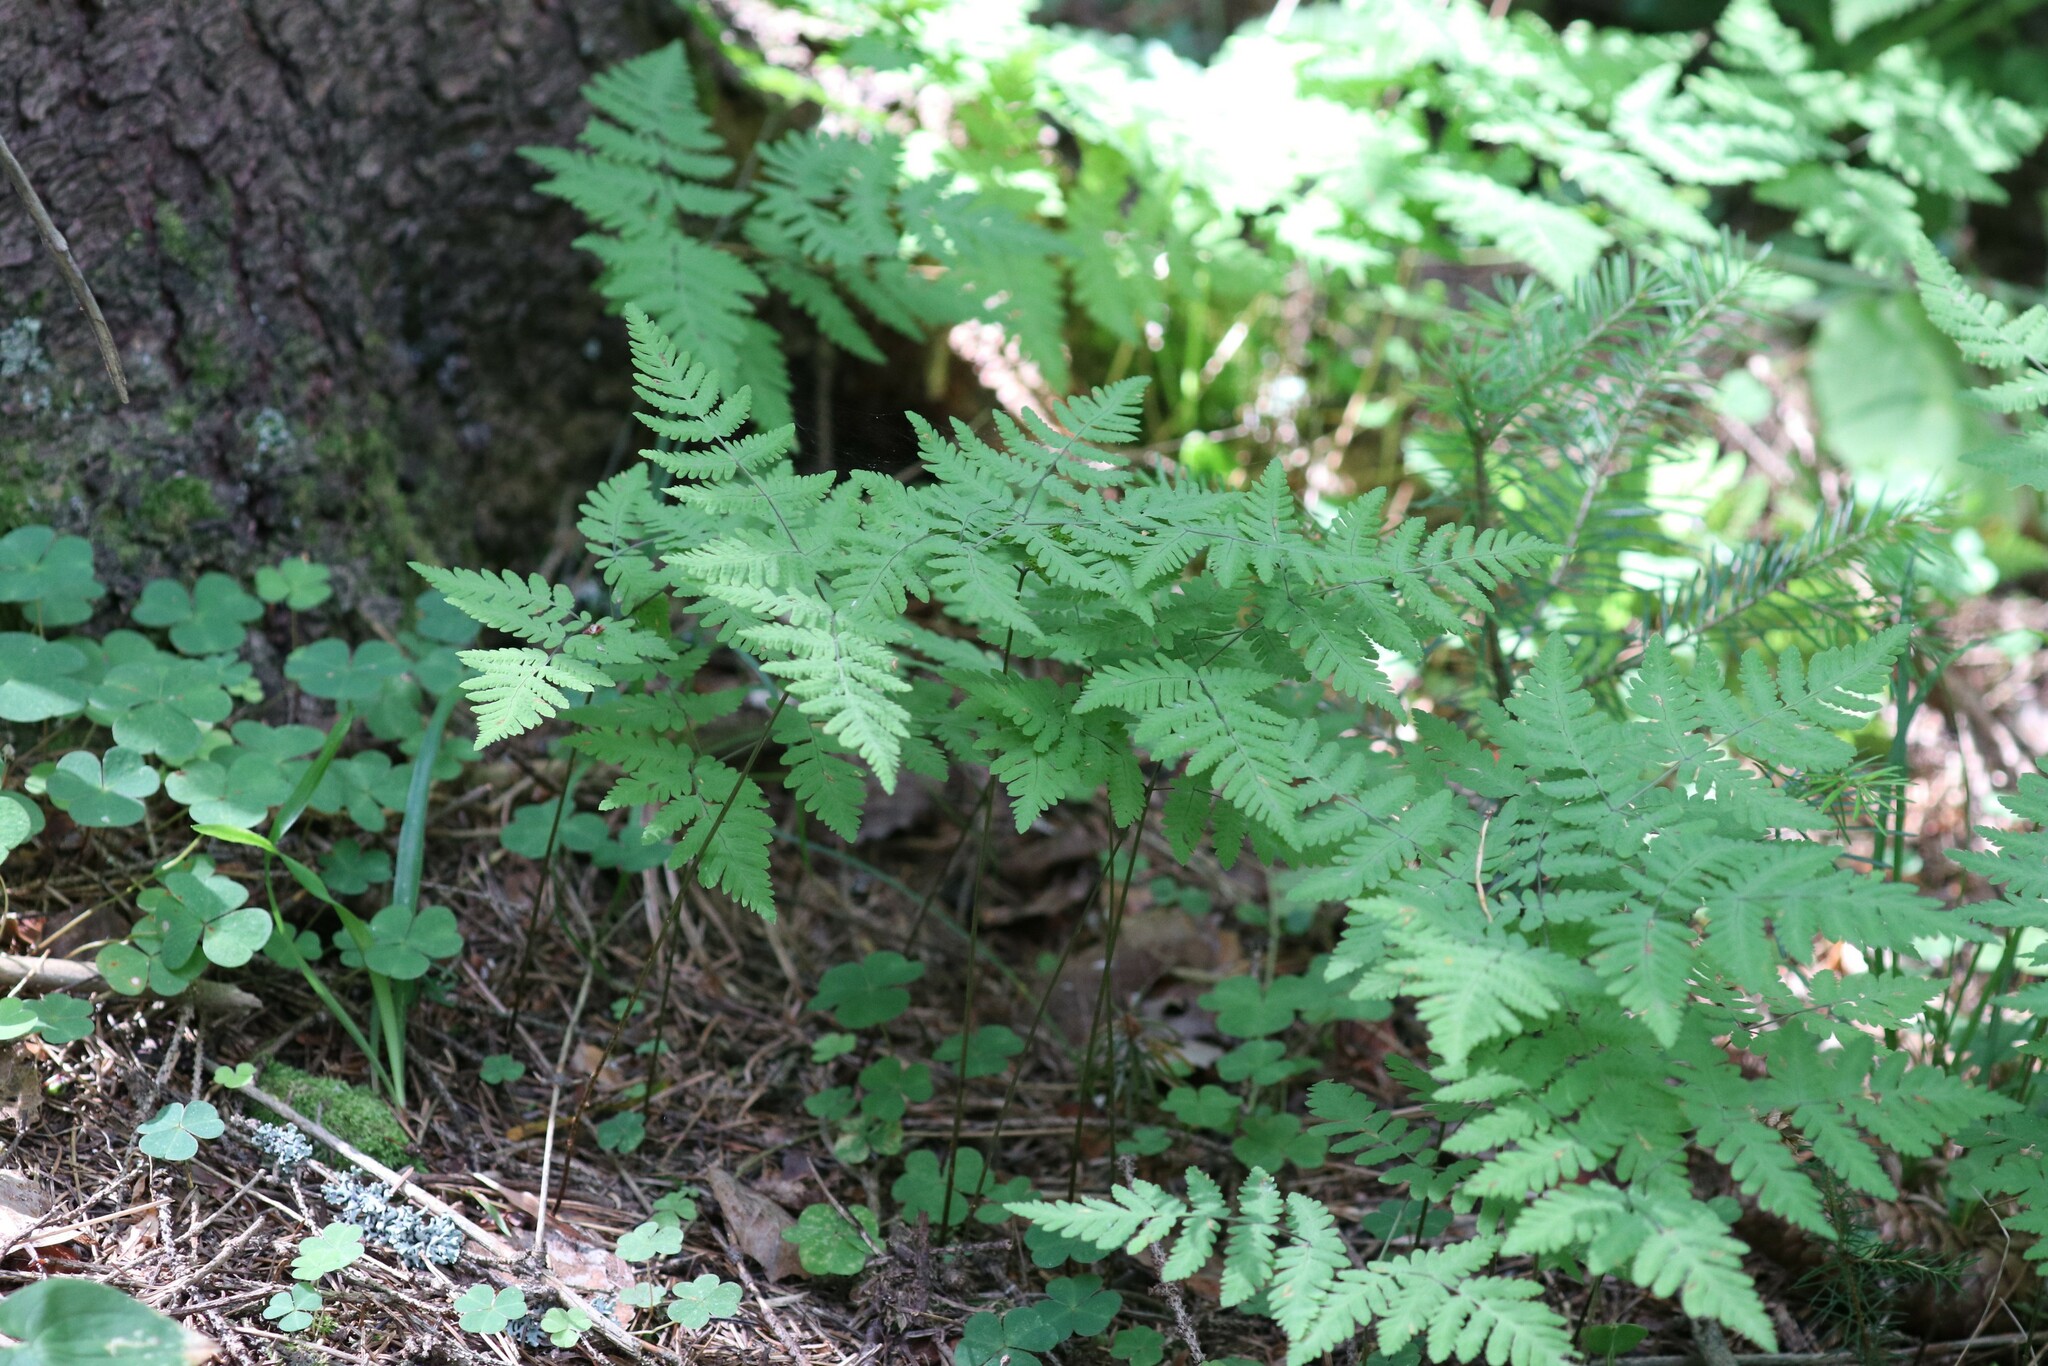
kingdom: Plantae
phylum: Tracheophyta
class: Polypodiopsida
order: Polypodiales
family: Cystopteridaceae
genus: Gymnocarpium
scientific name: Gymnocarpium dryopteris
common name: Oak fern
